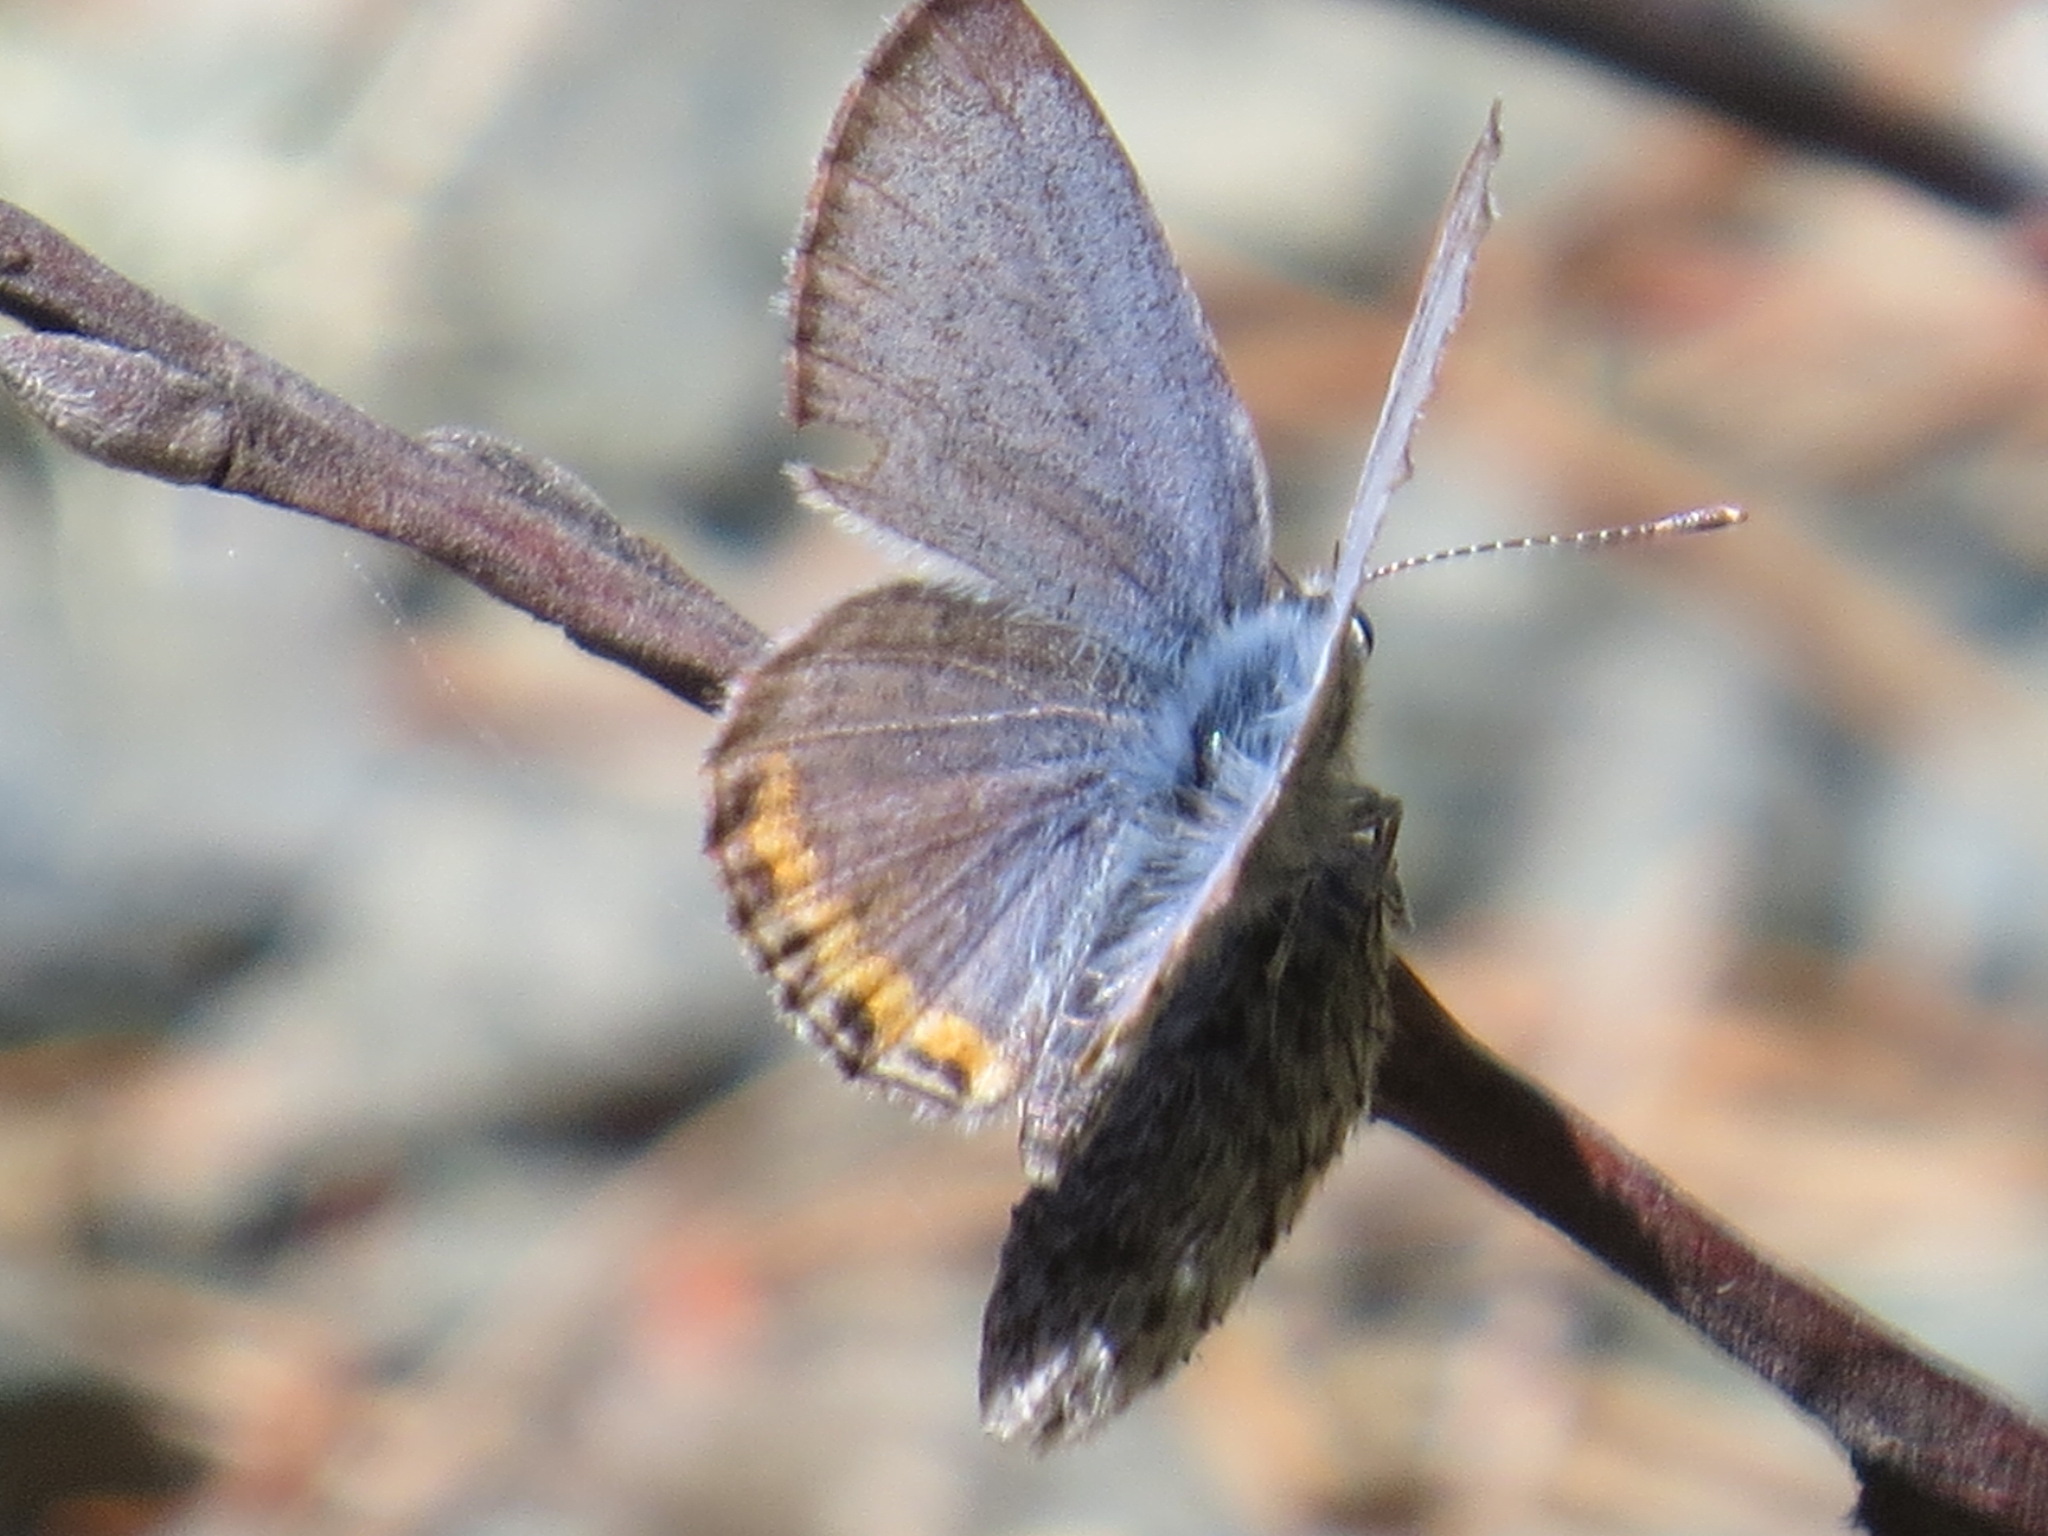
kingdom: Animalia
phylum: Arthropoda
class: Insecta
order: Lepidoptera
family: Lycaenidae
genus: Icaricia
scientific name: Icaricia acmon
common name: Acmon blue
